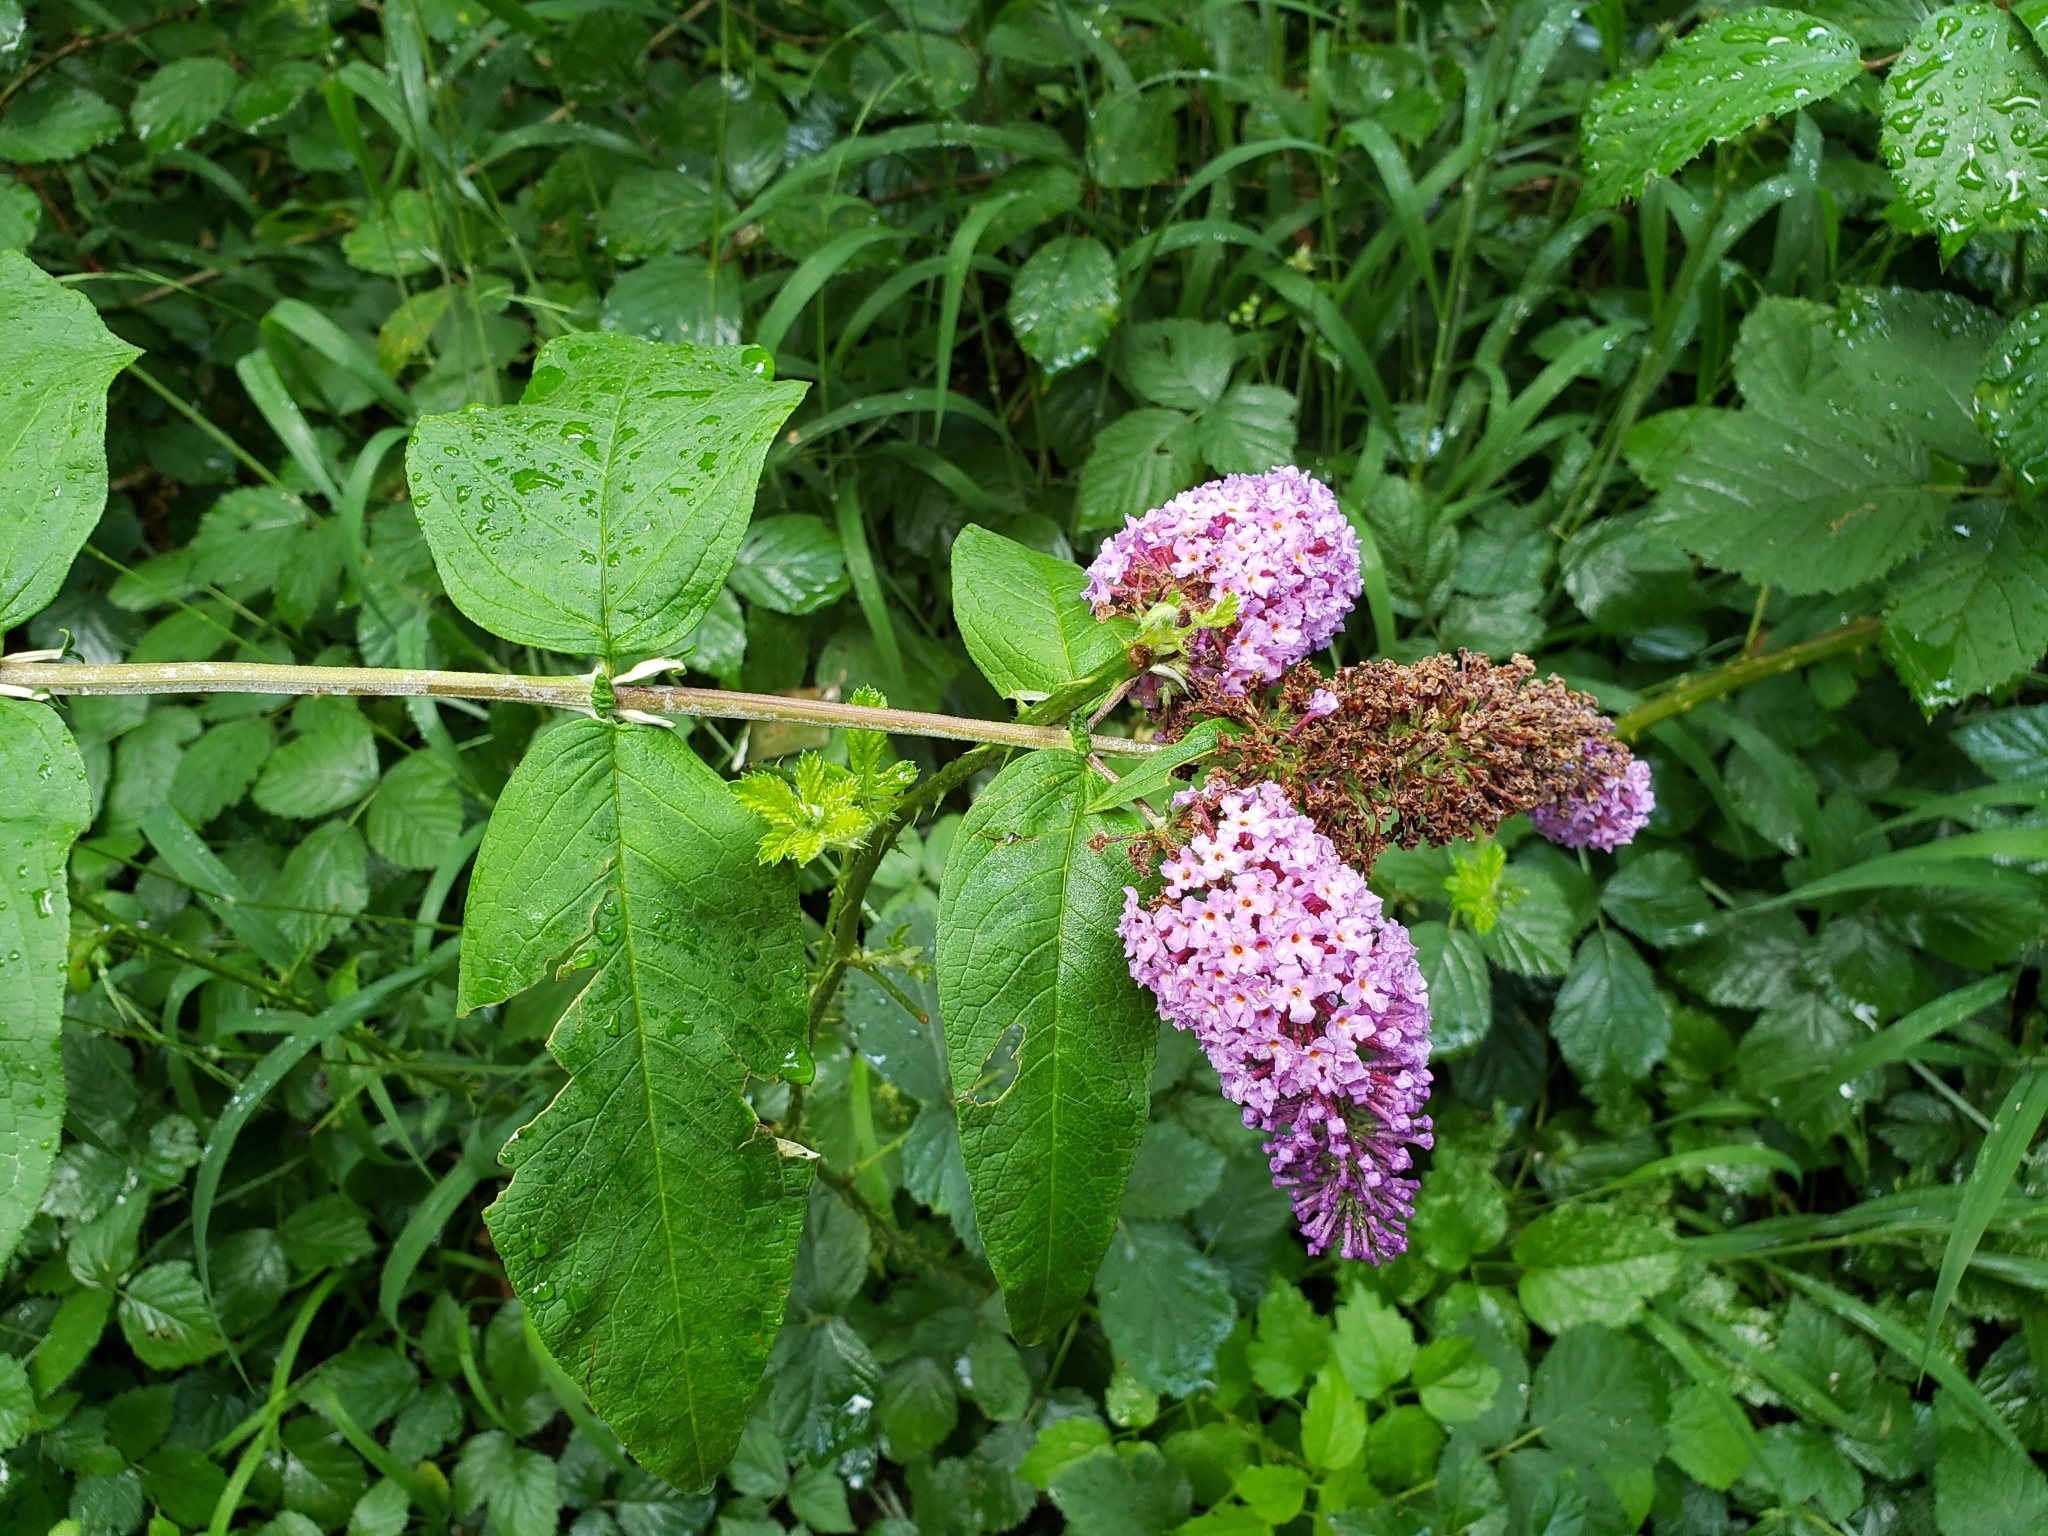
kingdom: Plantae
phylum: Tracheophyta
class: Magnoliopsida
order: Lamiales
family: Scrophulariaceae
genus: Buddleja
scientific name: Buddleja davidii
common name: Butterfly-bush
